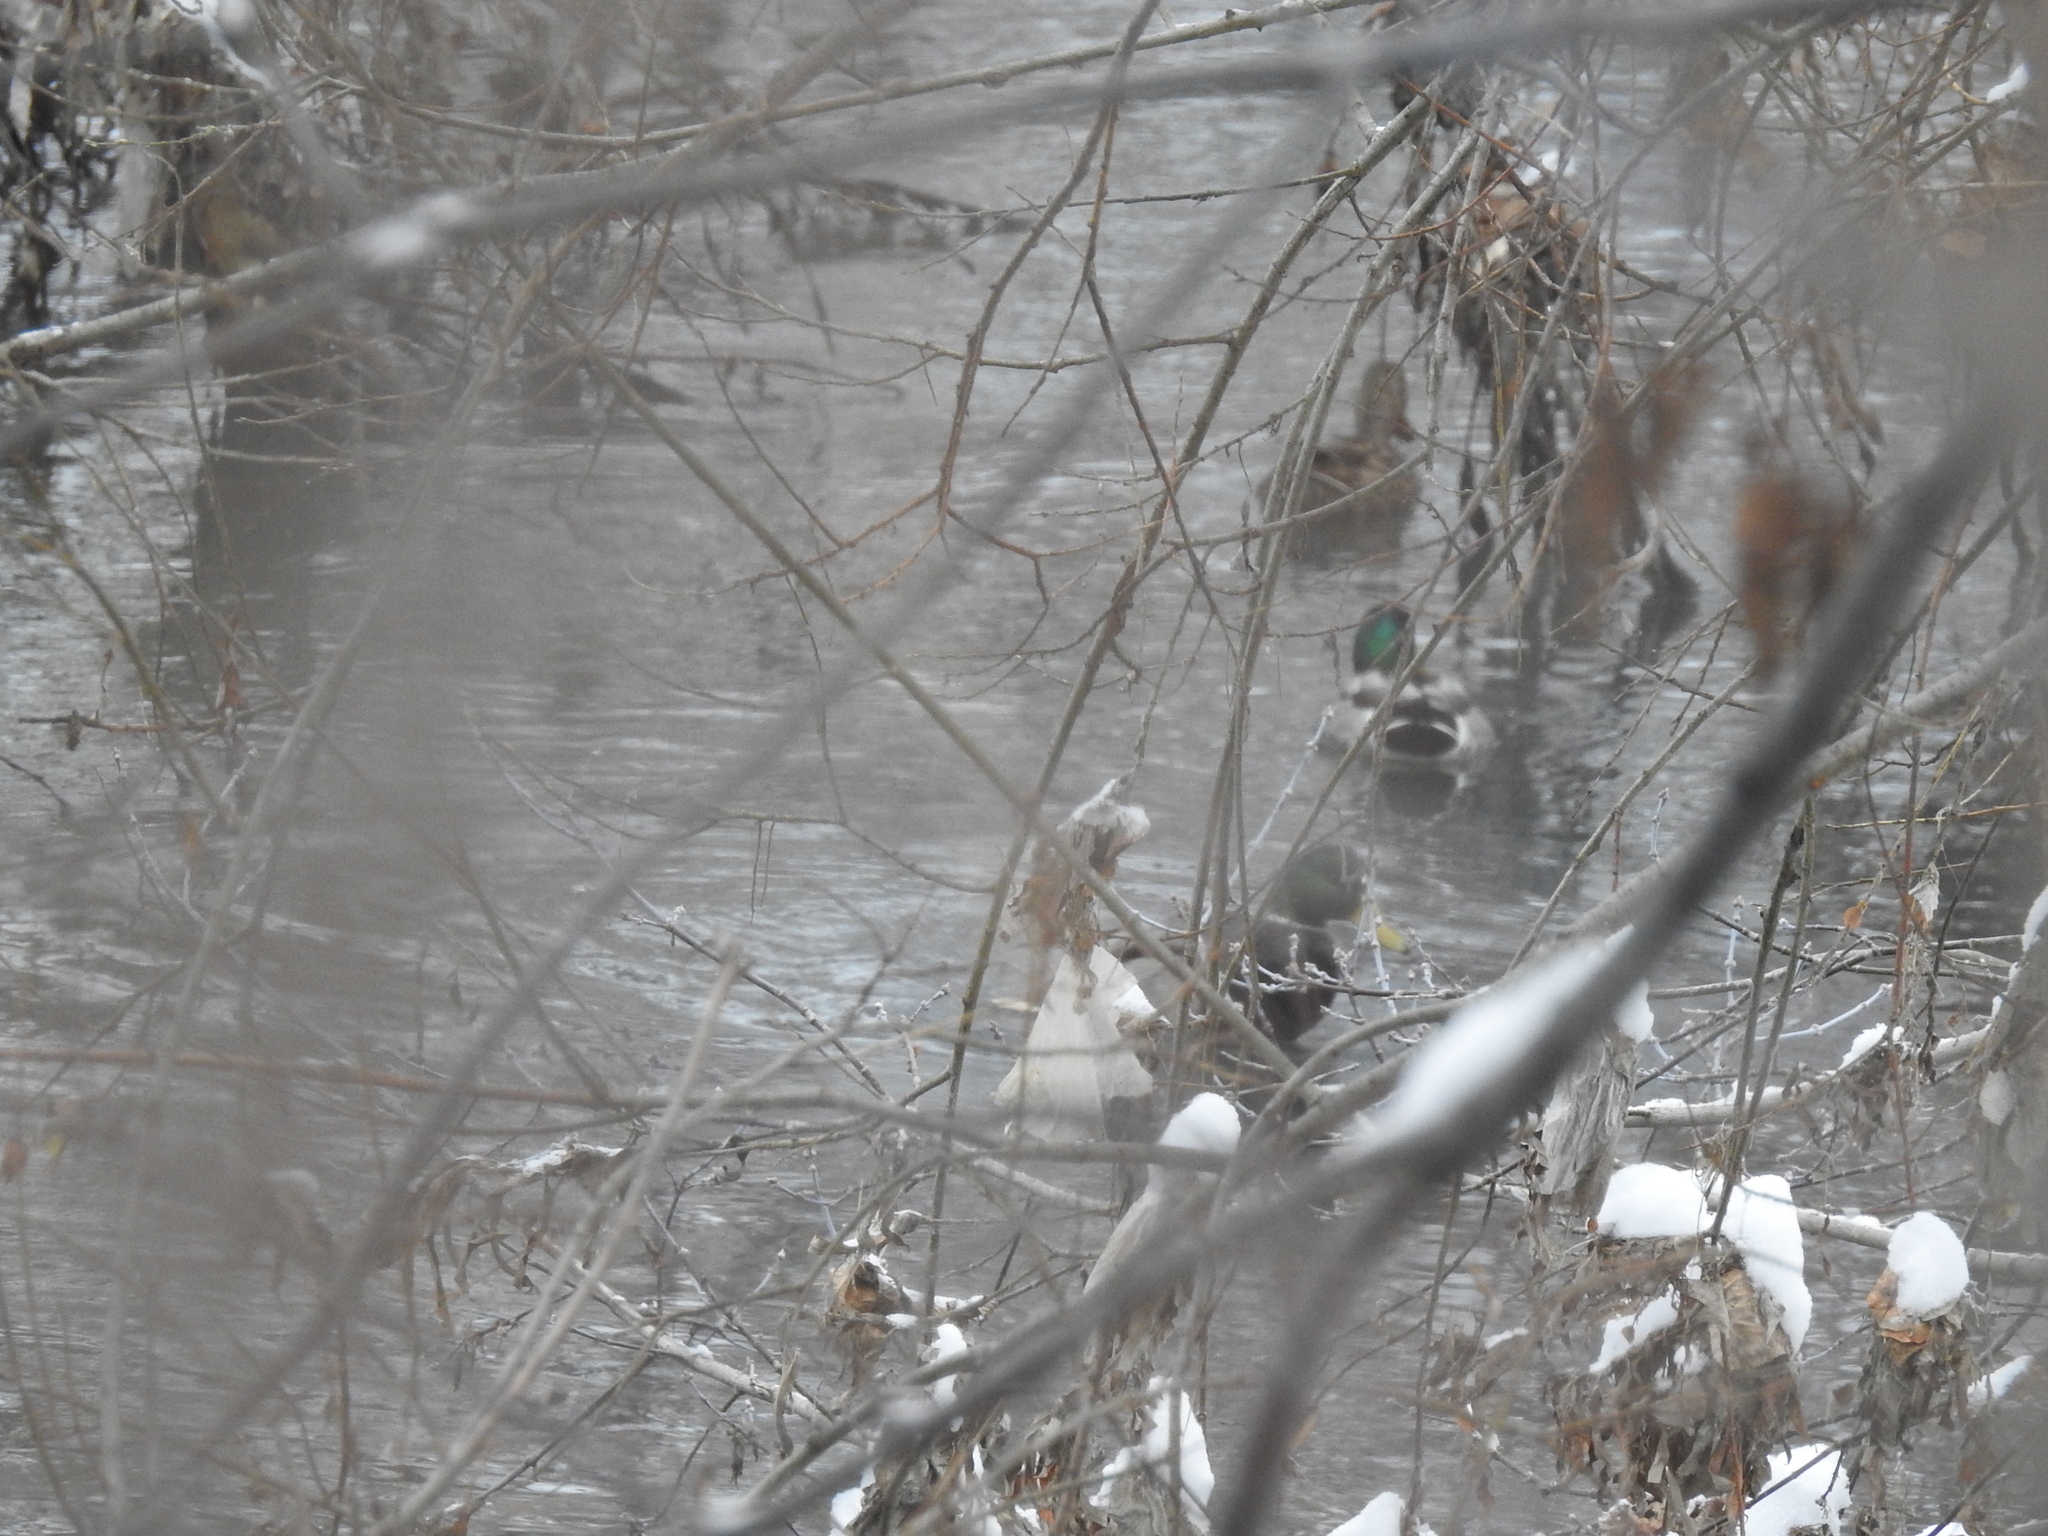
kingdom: Animalia
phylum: Chordata
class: Aves
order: Anseriformes
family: Anatidae
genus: Anas
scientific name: Anas platyrhynchos
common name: Mallard
